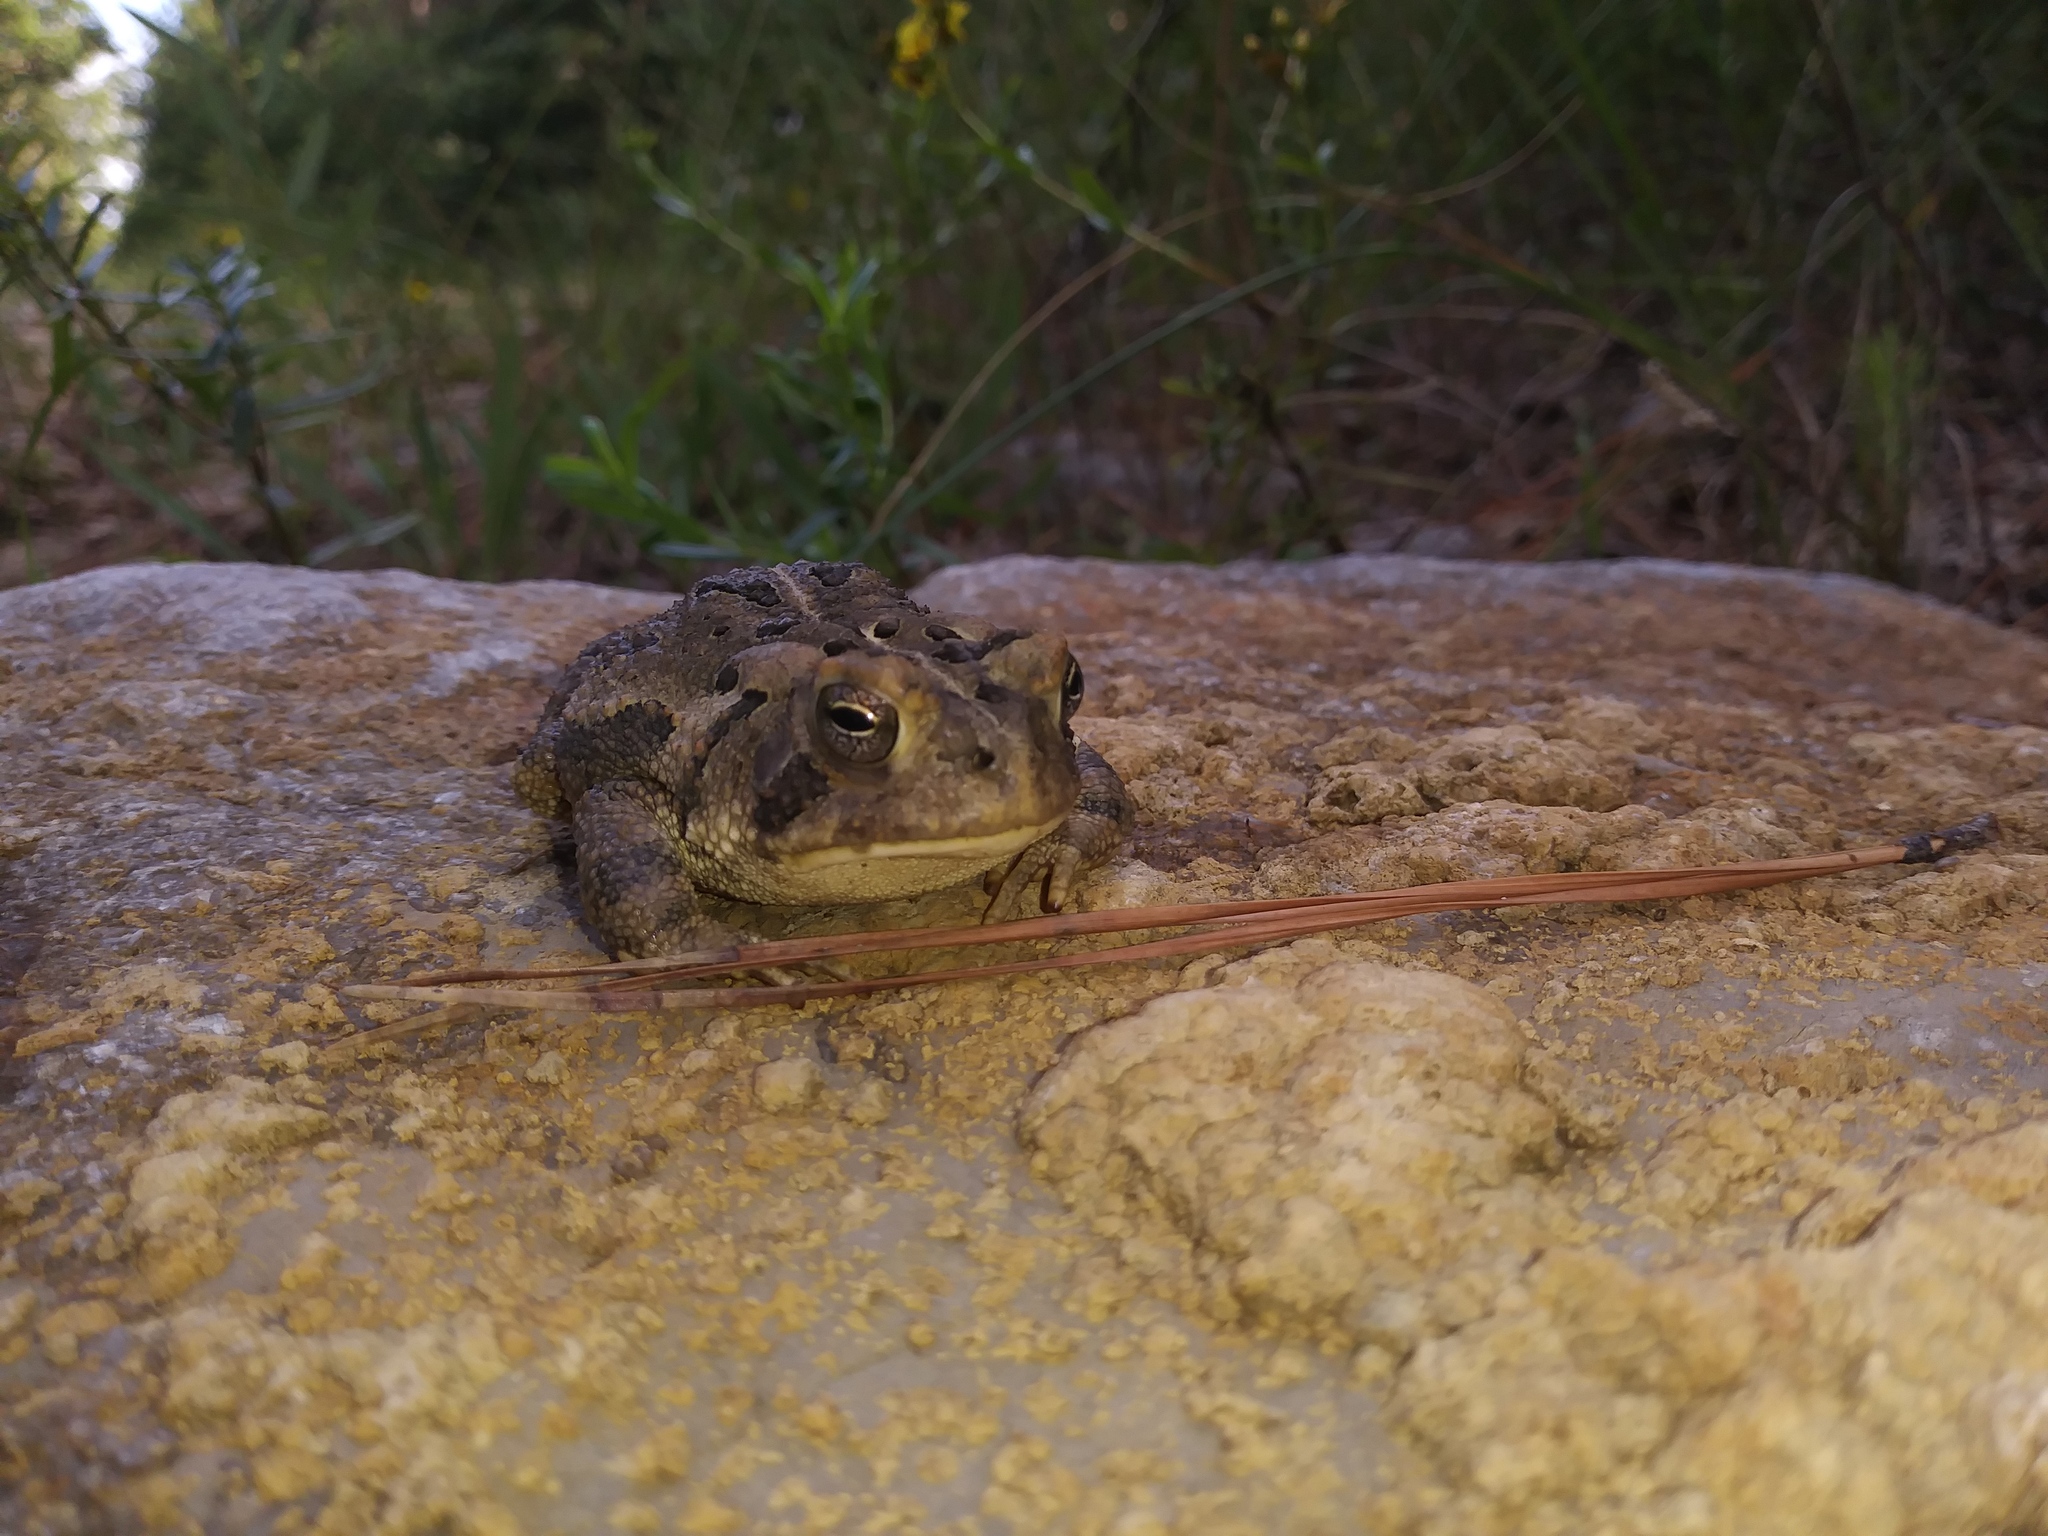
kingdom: Animalia
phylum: Chordata
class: Amphibia
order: Anura
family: Bufonidae
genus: Anaxyrus
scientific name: Anaxyrus fowleri
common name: Fowler's toad
